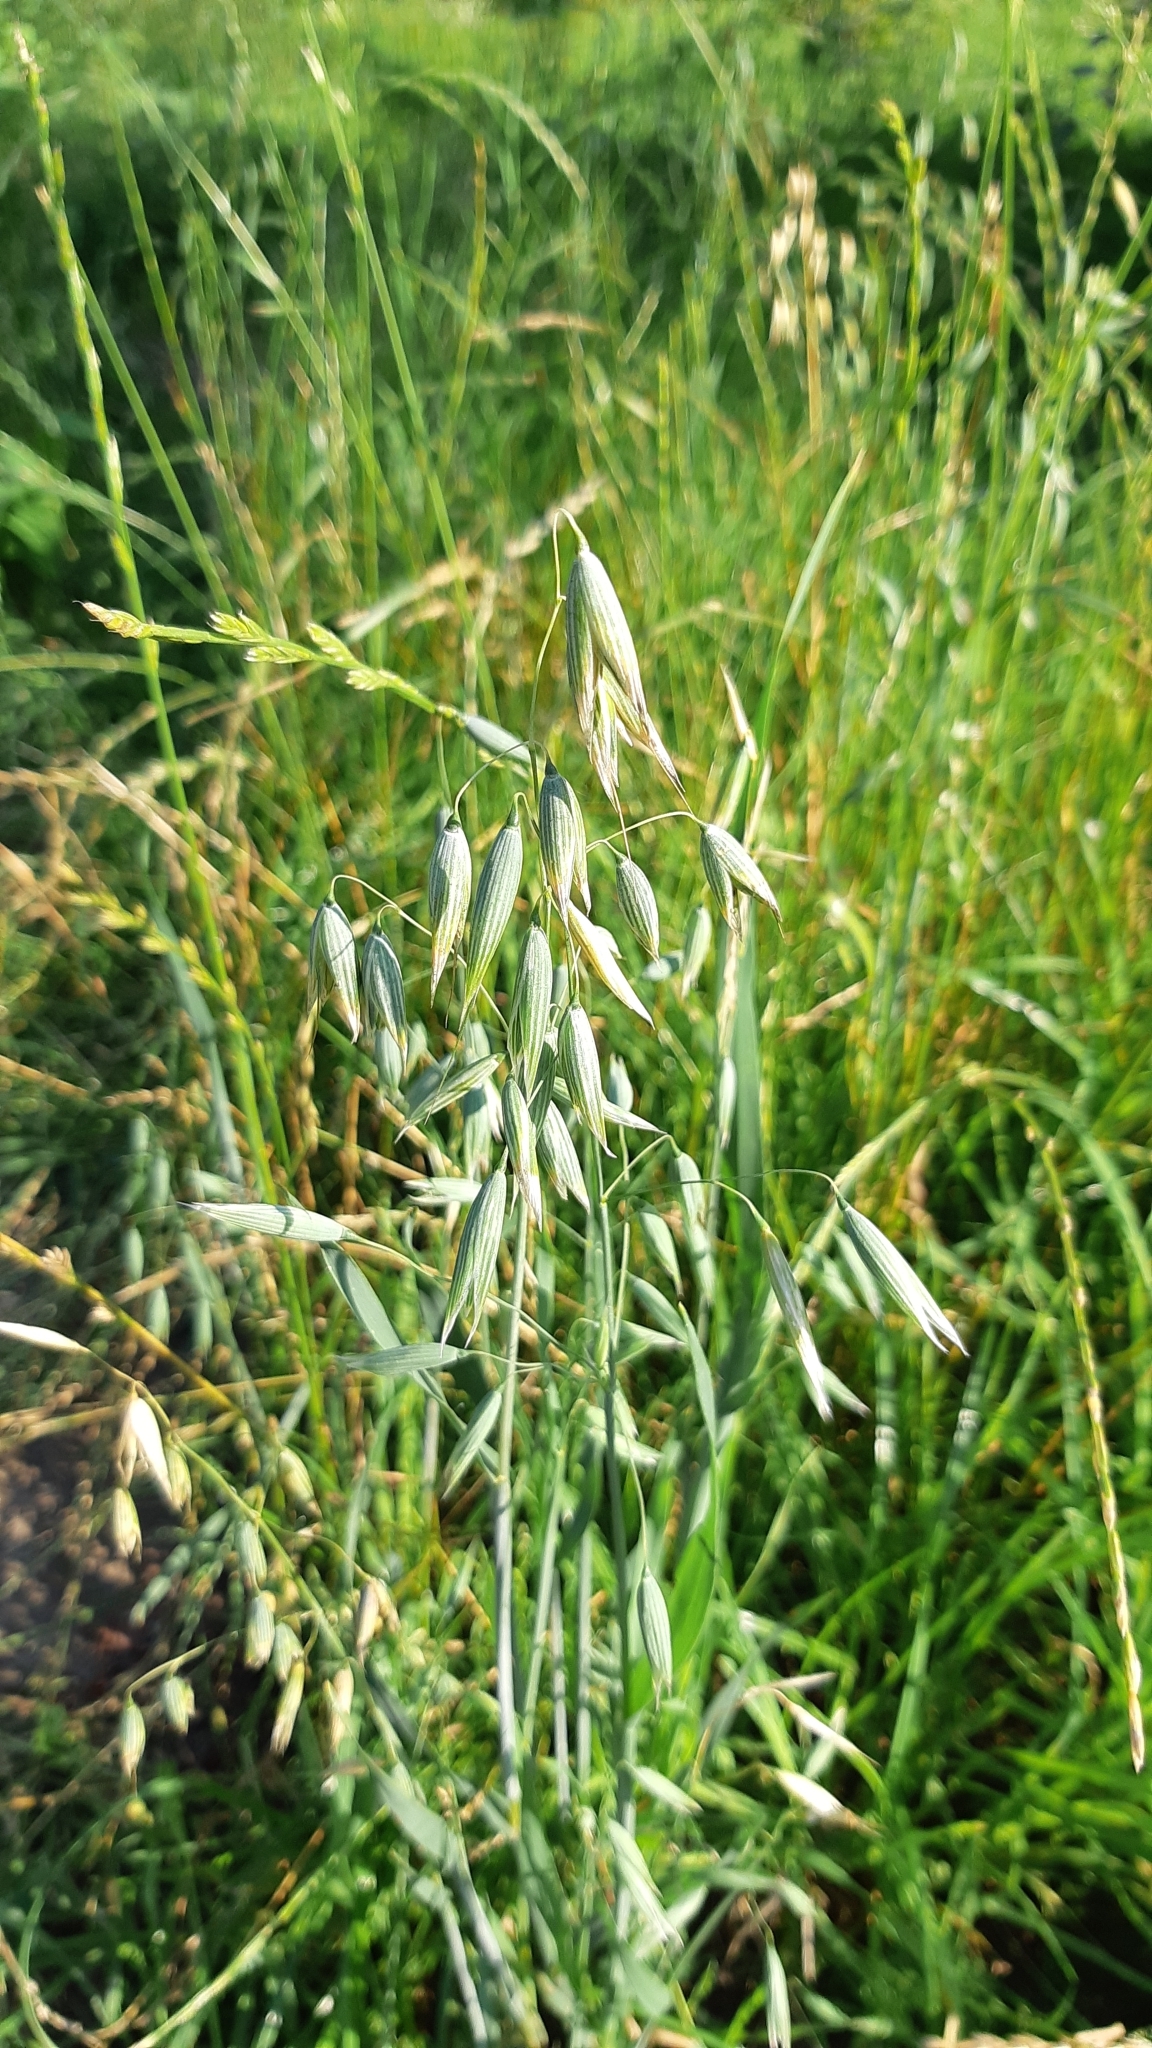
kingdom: Plantae
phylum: Tracheophyta
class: Liliopsida
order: Poales
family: Poaceae
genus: Avena
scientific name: Avena sativa
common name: Oat
